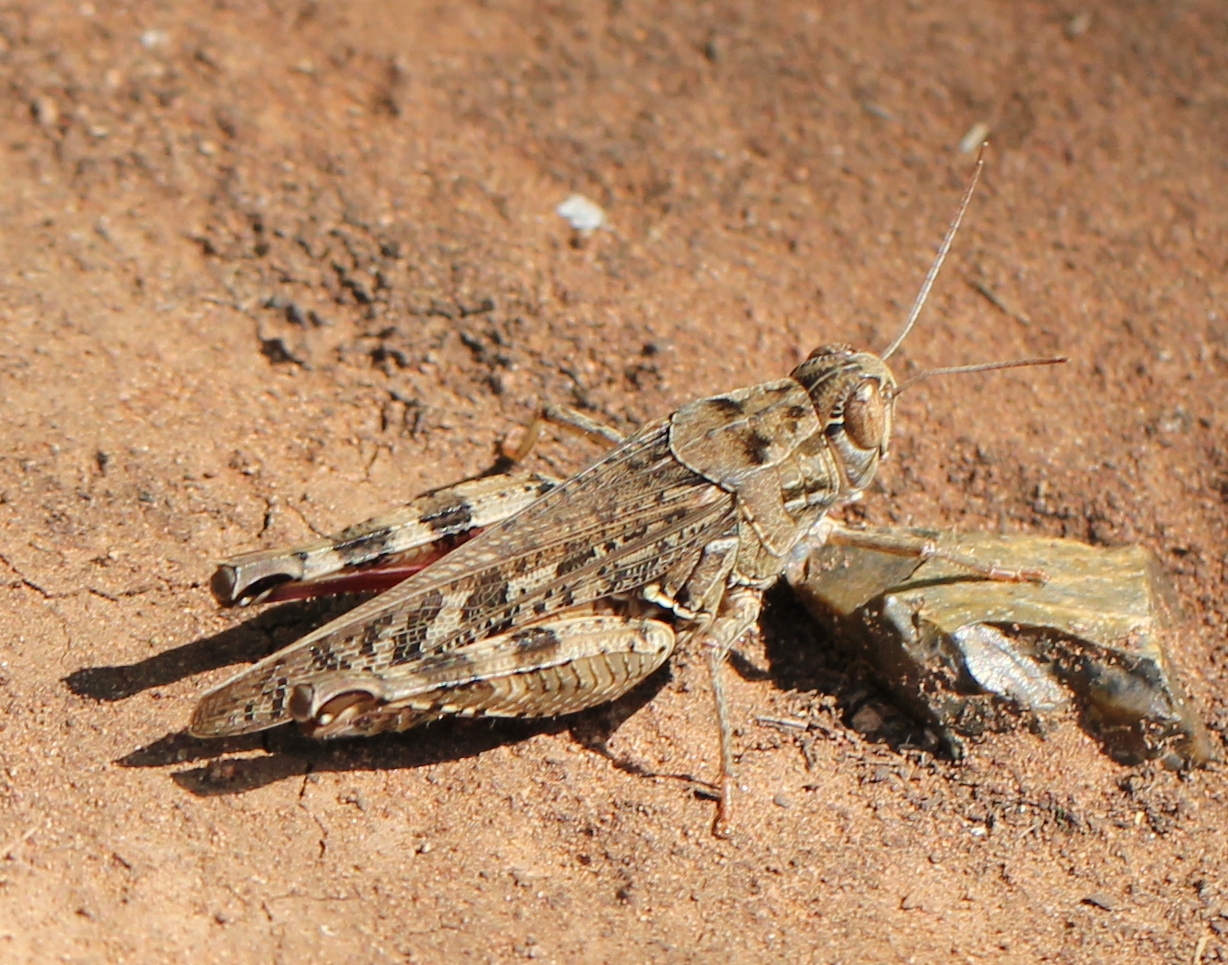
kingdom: Animalia
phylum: Arthropoda
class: Insecta
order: Orthoptera
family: Acrididae
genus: Calliptamus
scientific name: Calliptamus italicus
